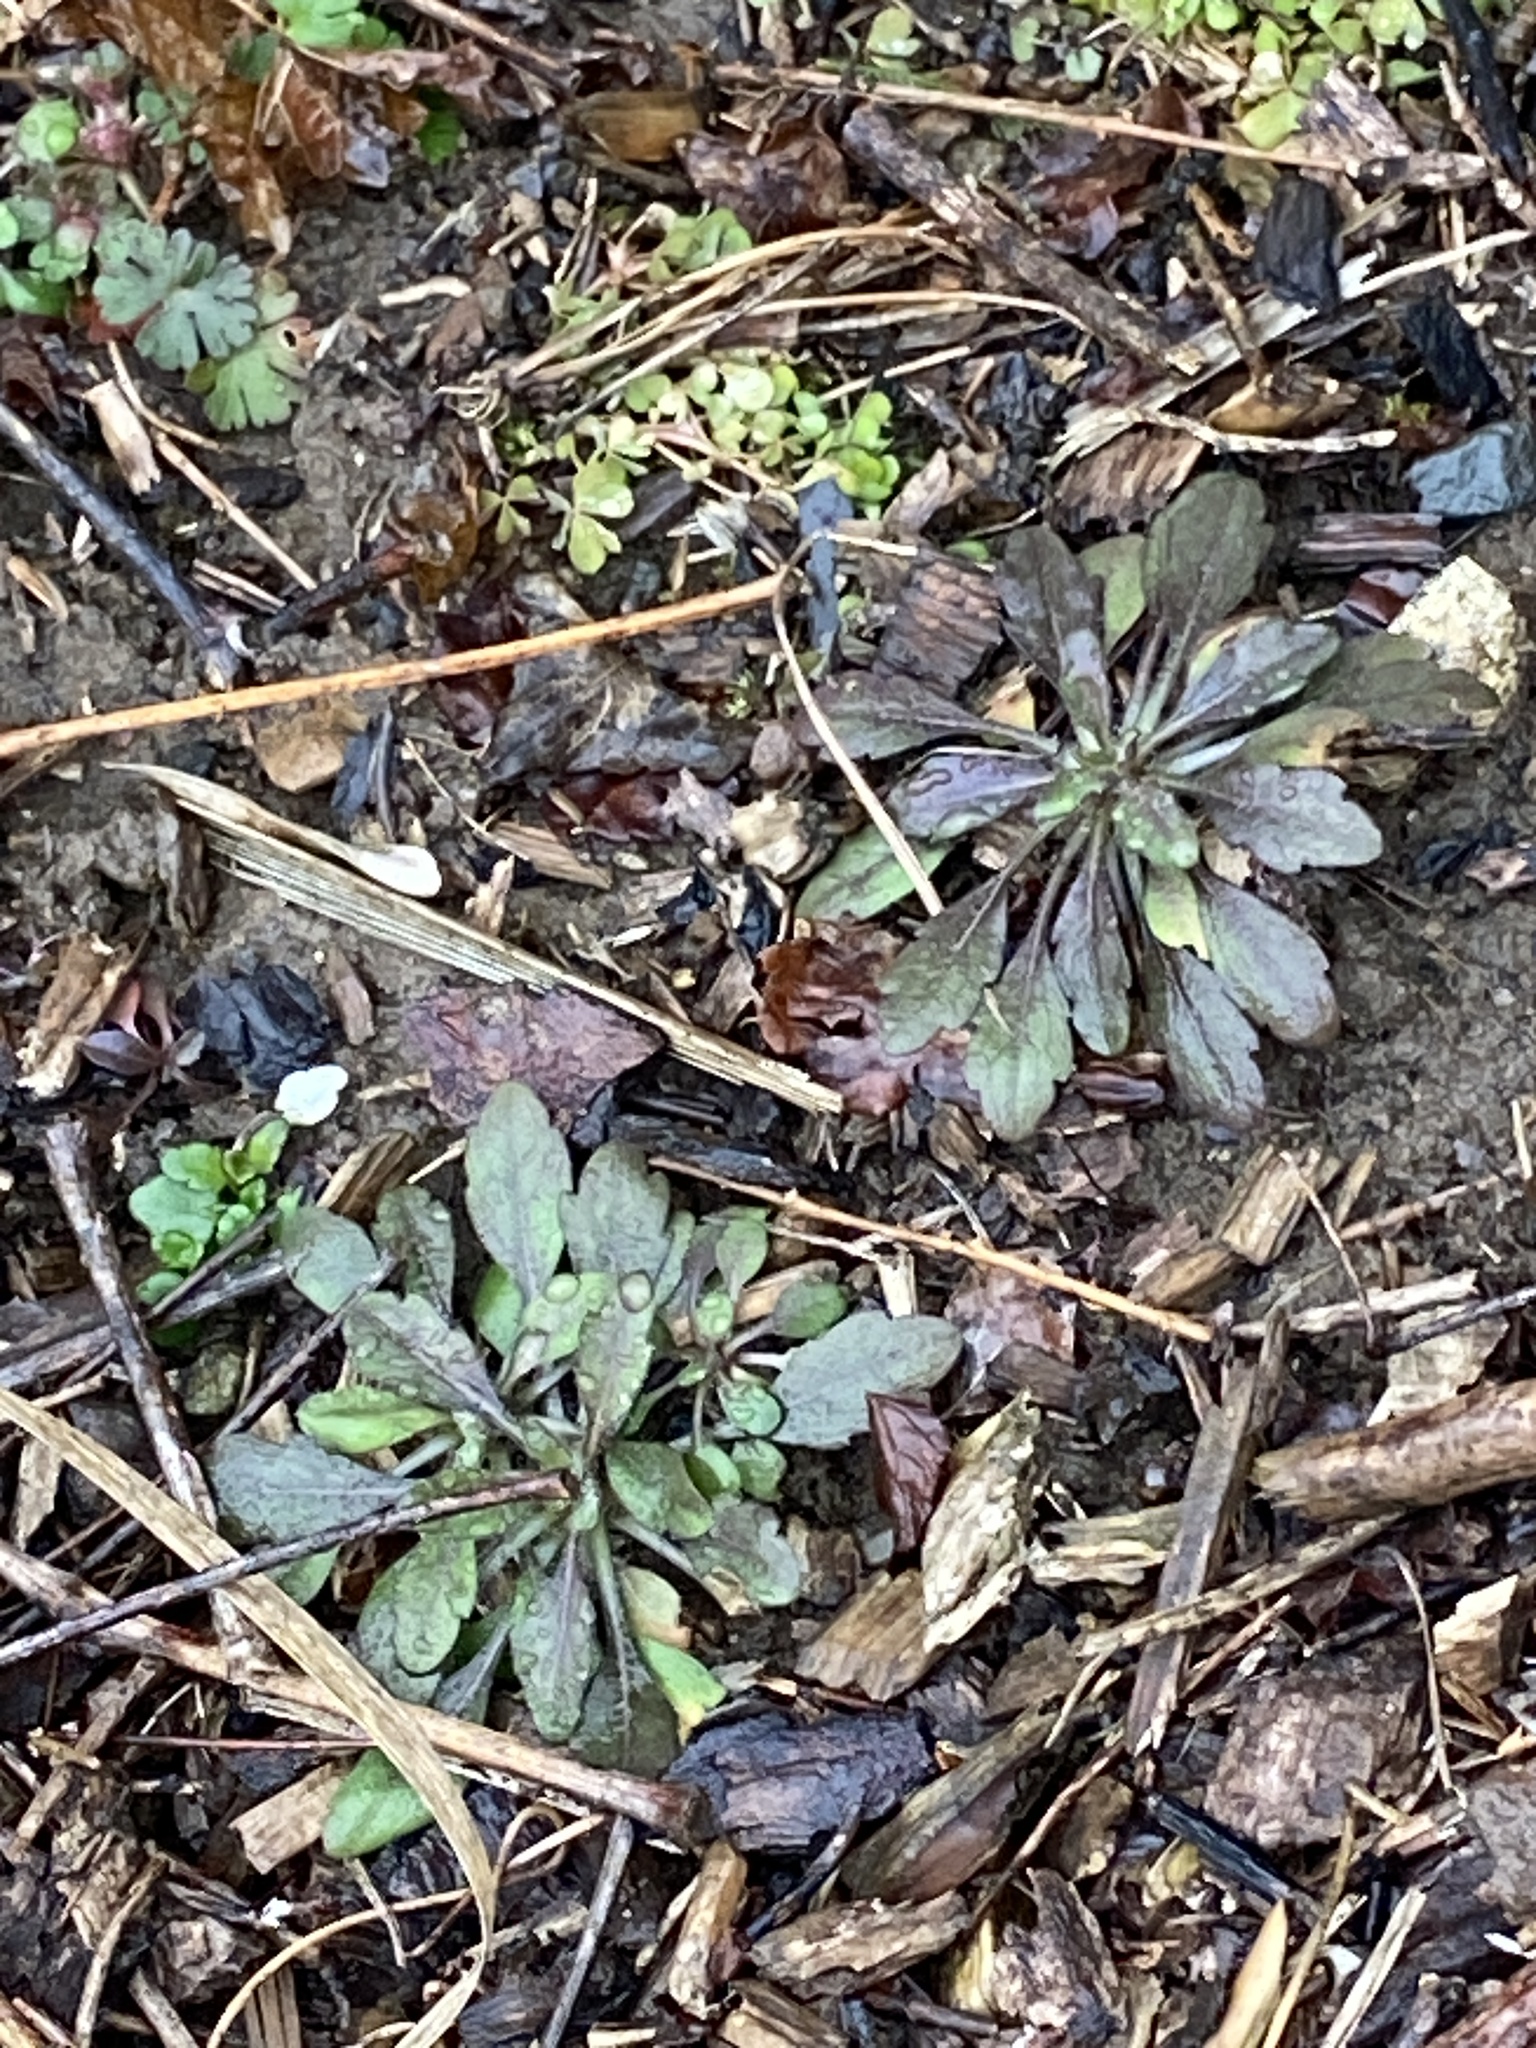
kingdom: Plantae
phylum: Tracheophyta
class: Magnoliopsida
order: Asterales
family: Asteraceae
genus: Erigeron
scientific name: Erigeron canadensis
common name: Canadian fleabane
